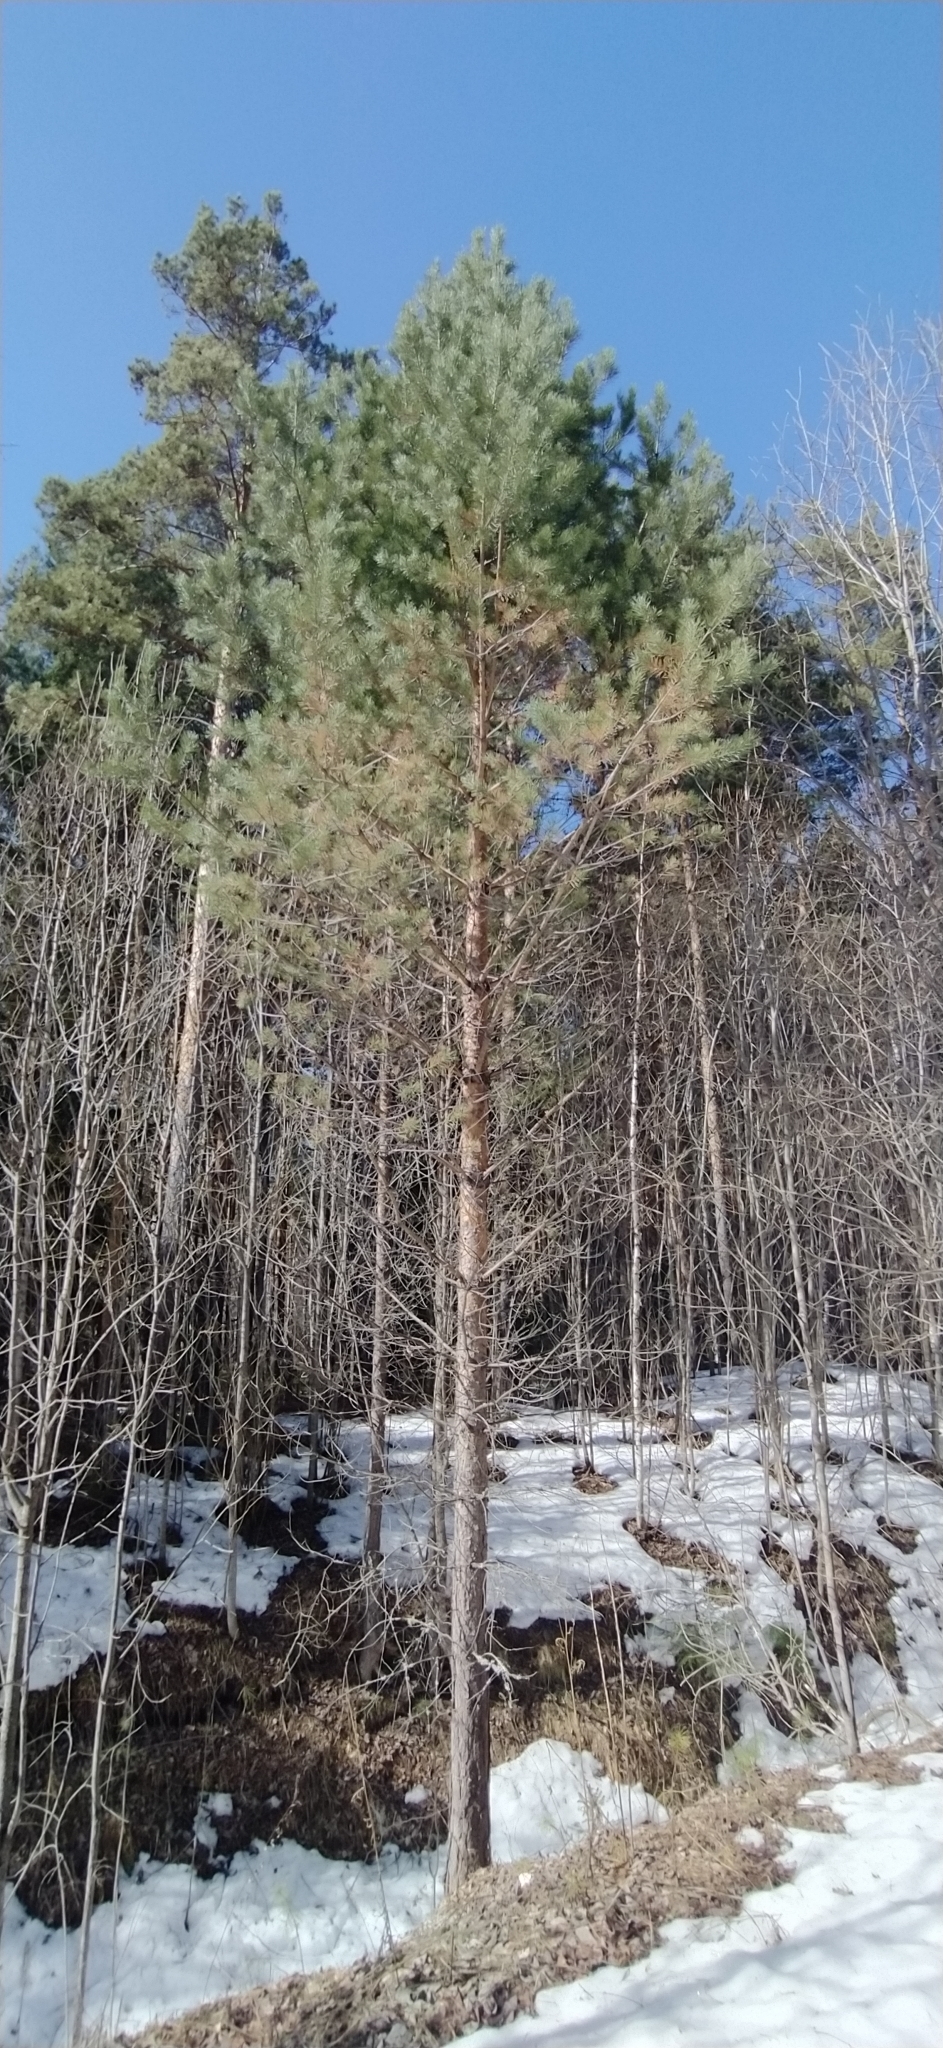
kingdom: Plantae
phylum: Tracheophyta
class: Pinopsida
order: Pinales
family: Pinaceae
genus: Pinus
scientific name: Pinus sylvestris
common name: Scots pine
